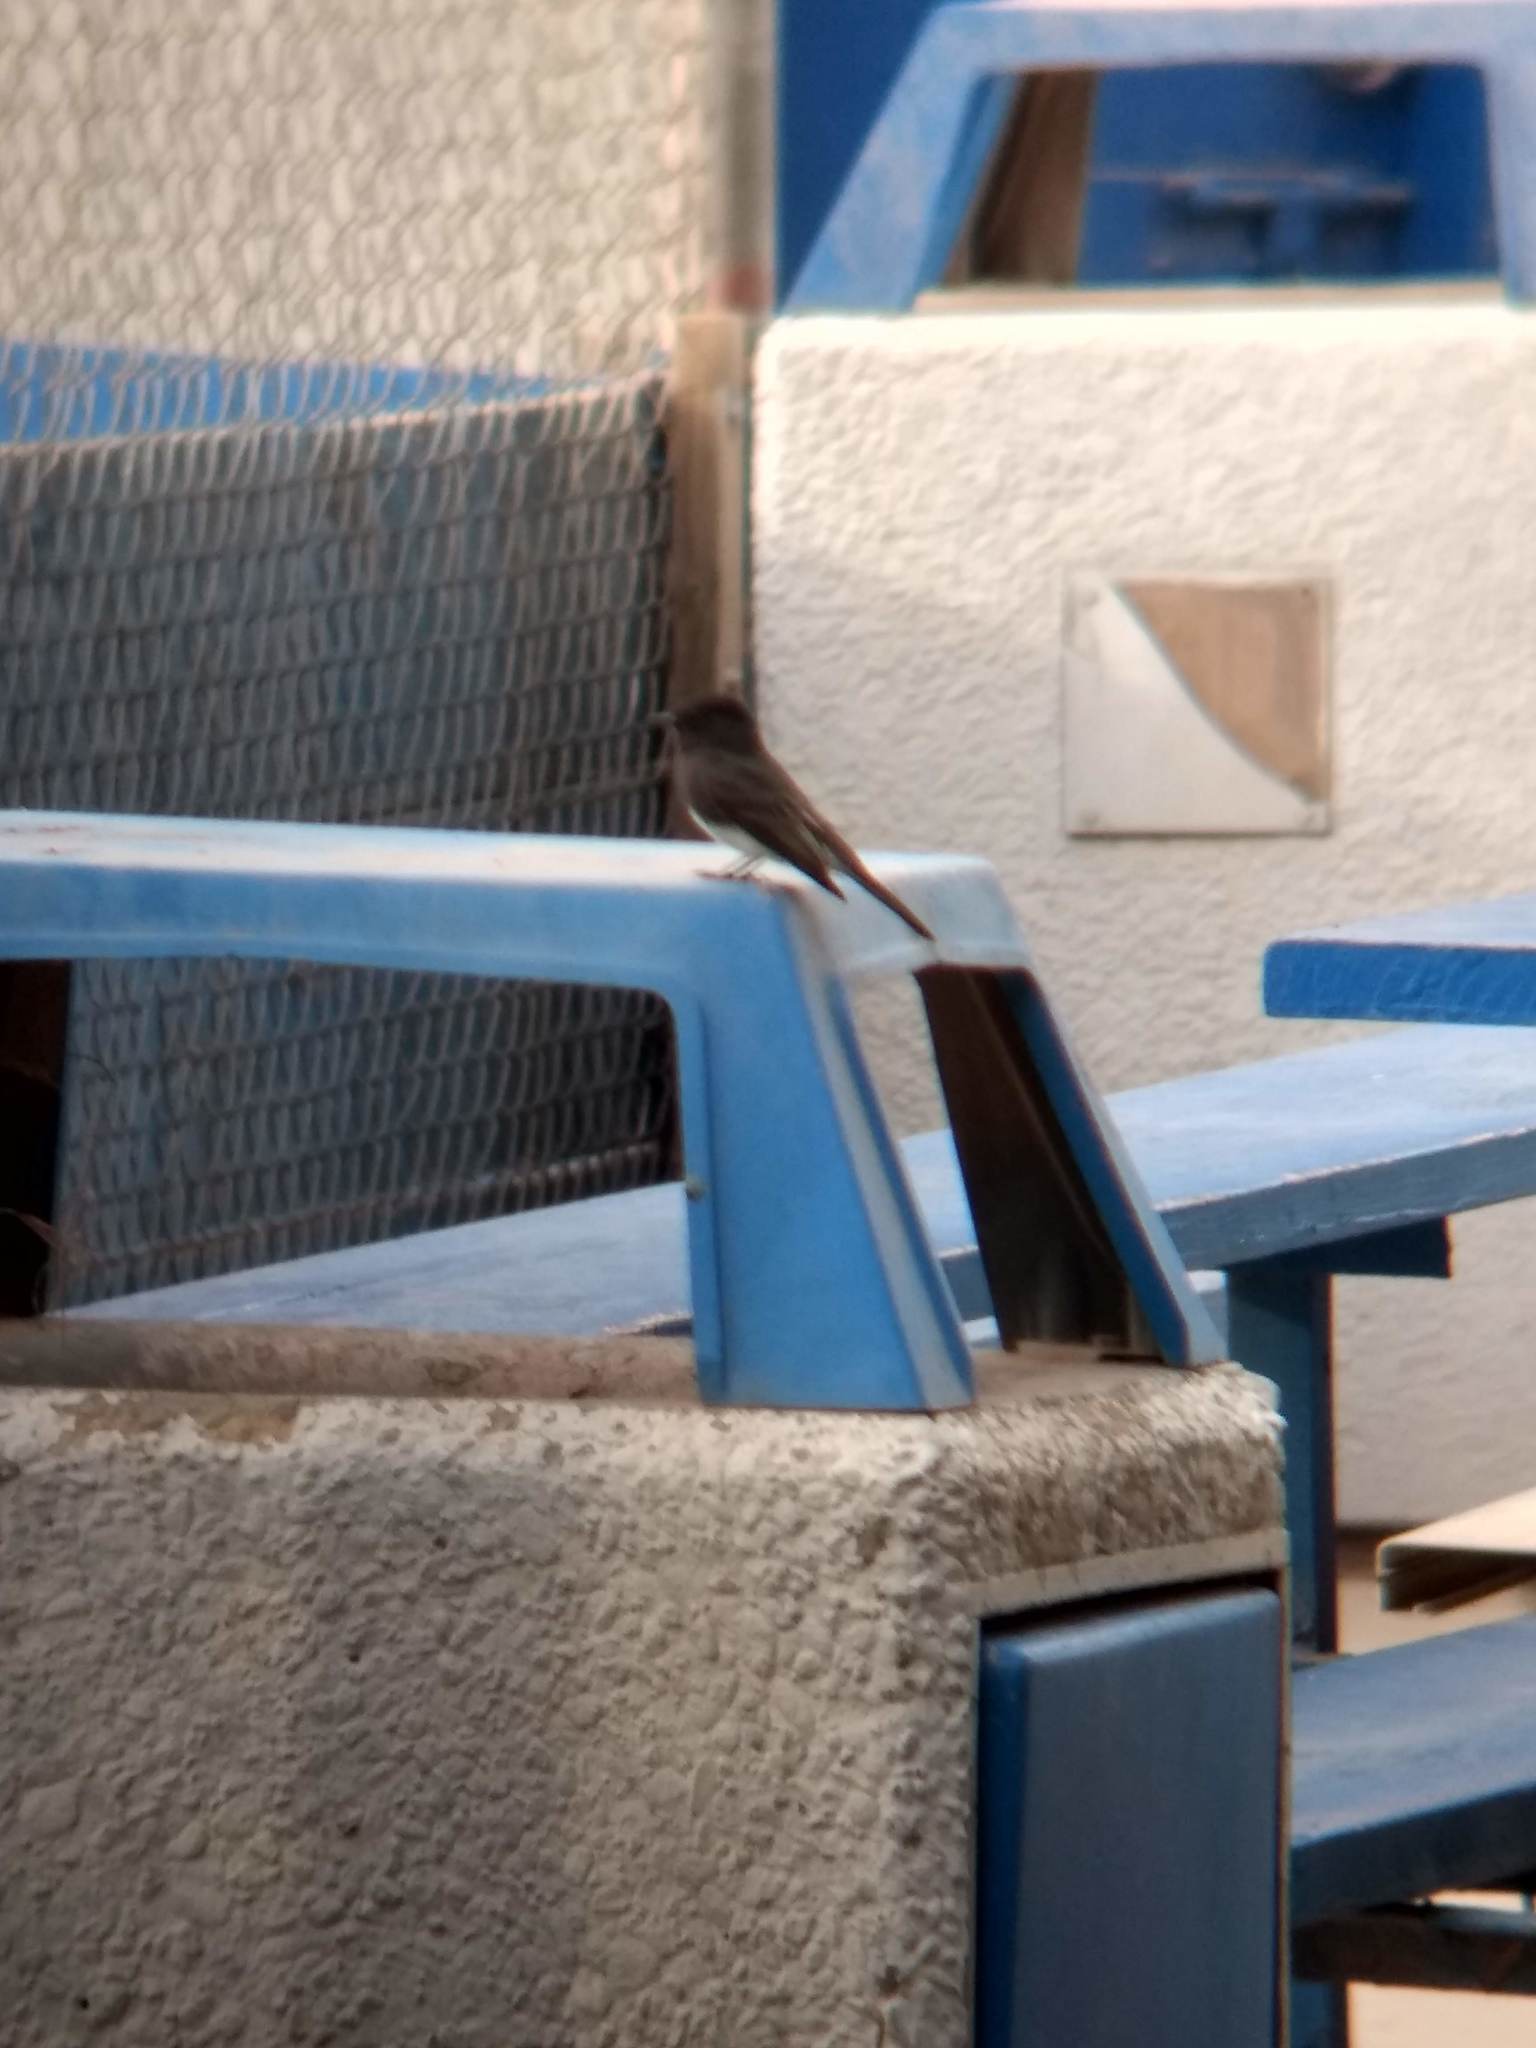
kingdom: Animalia
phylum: Chordata
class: Aves
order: Passeriformes
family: Tyrannidae
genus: Sayornis
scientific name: Sayornis nigricans
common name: Black phoebe
